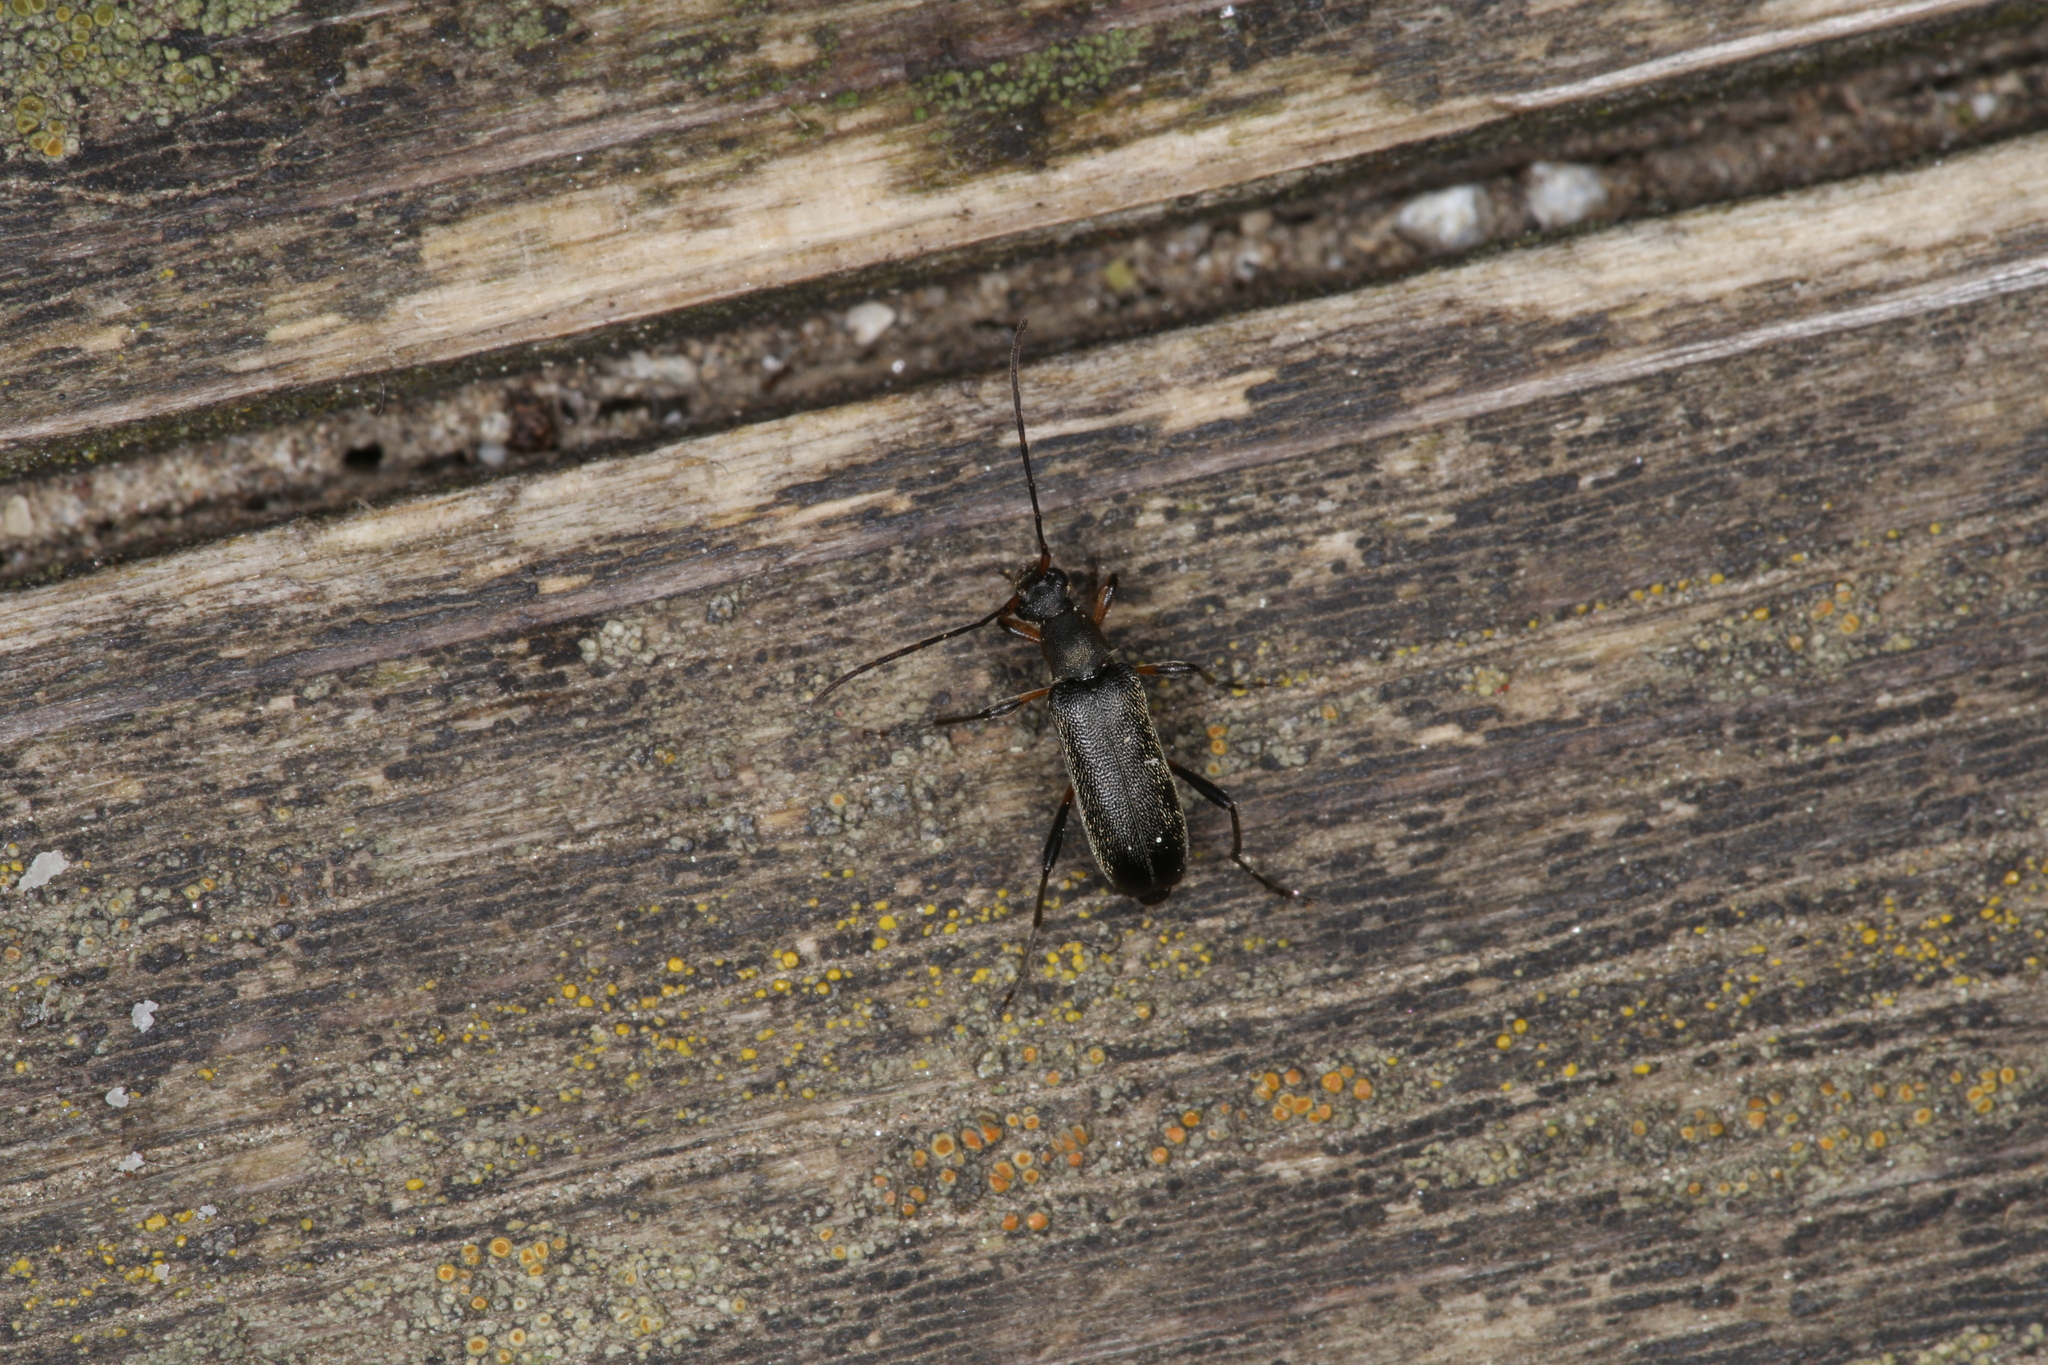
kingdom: Animalia
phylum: Arthropoda
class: Insecta
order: Coleoptera
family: Cerambycidae
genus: Grammoptera
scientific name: Grammoptera ruficornis
